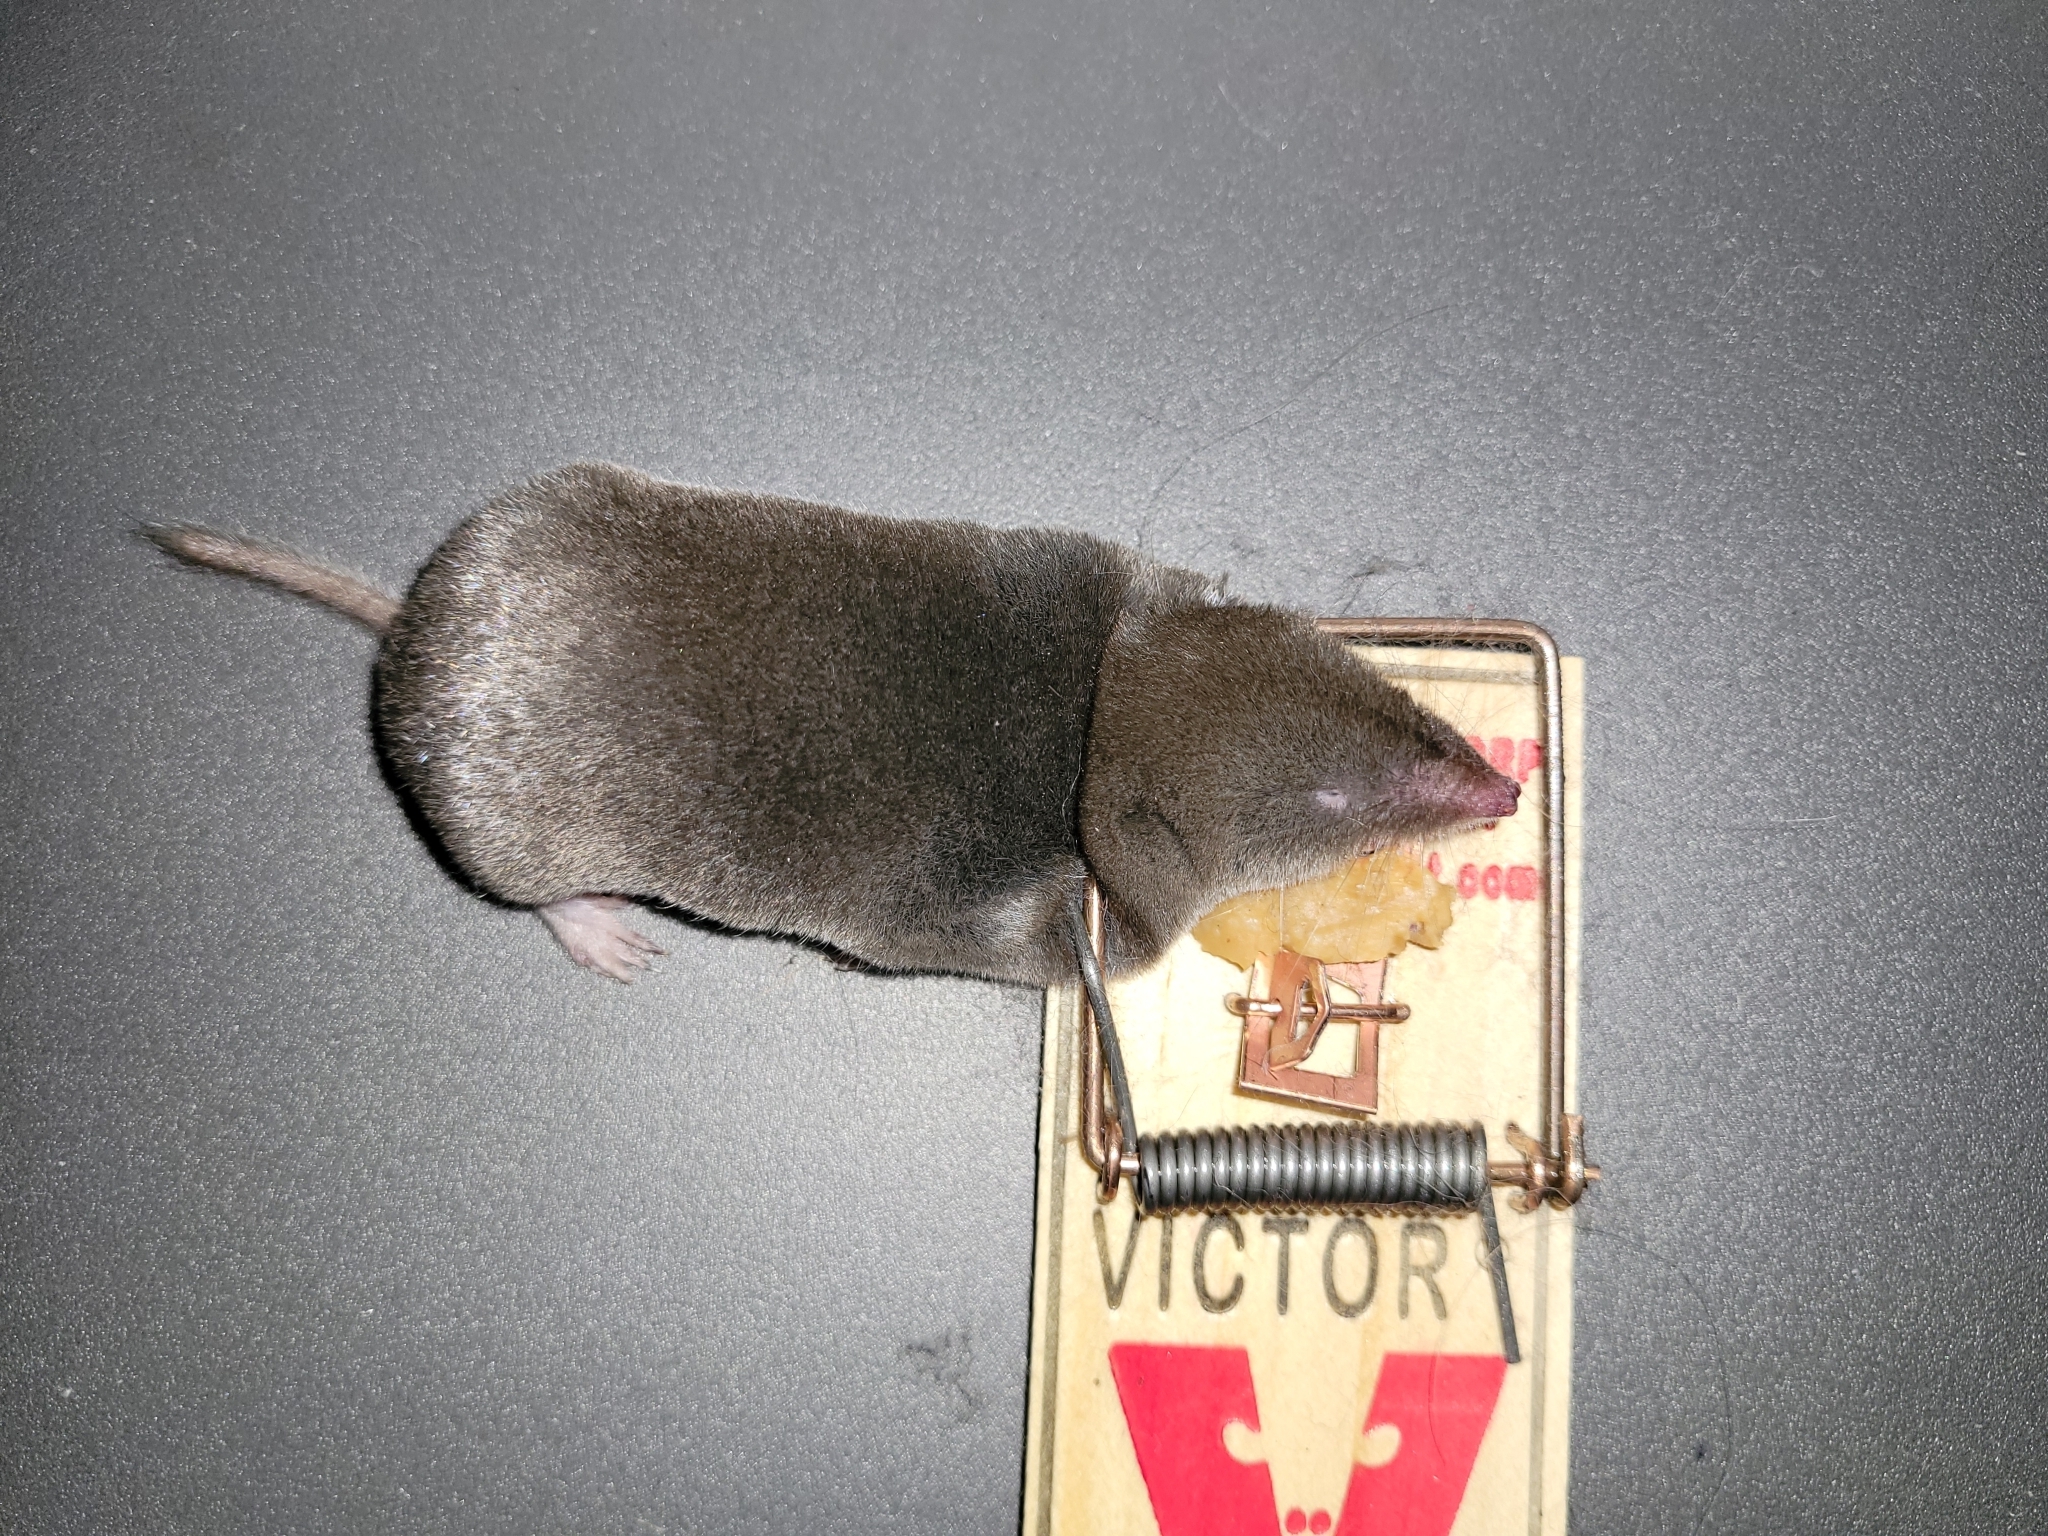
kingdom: Animalia
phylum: Chordata
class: Mammalia
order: Soricomorpha
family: Soricidae
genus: Blarina
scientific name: Blarina brevicauda
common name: Northern short-tailed shrew
